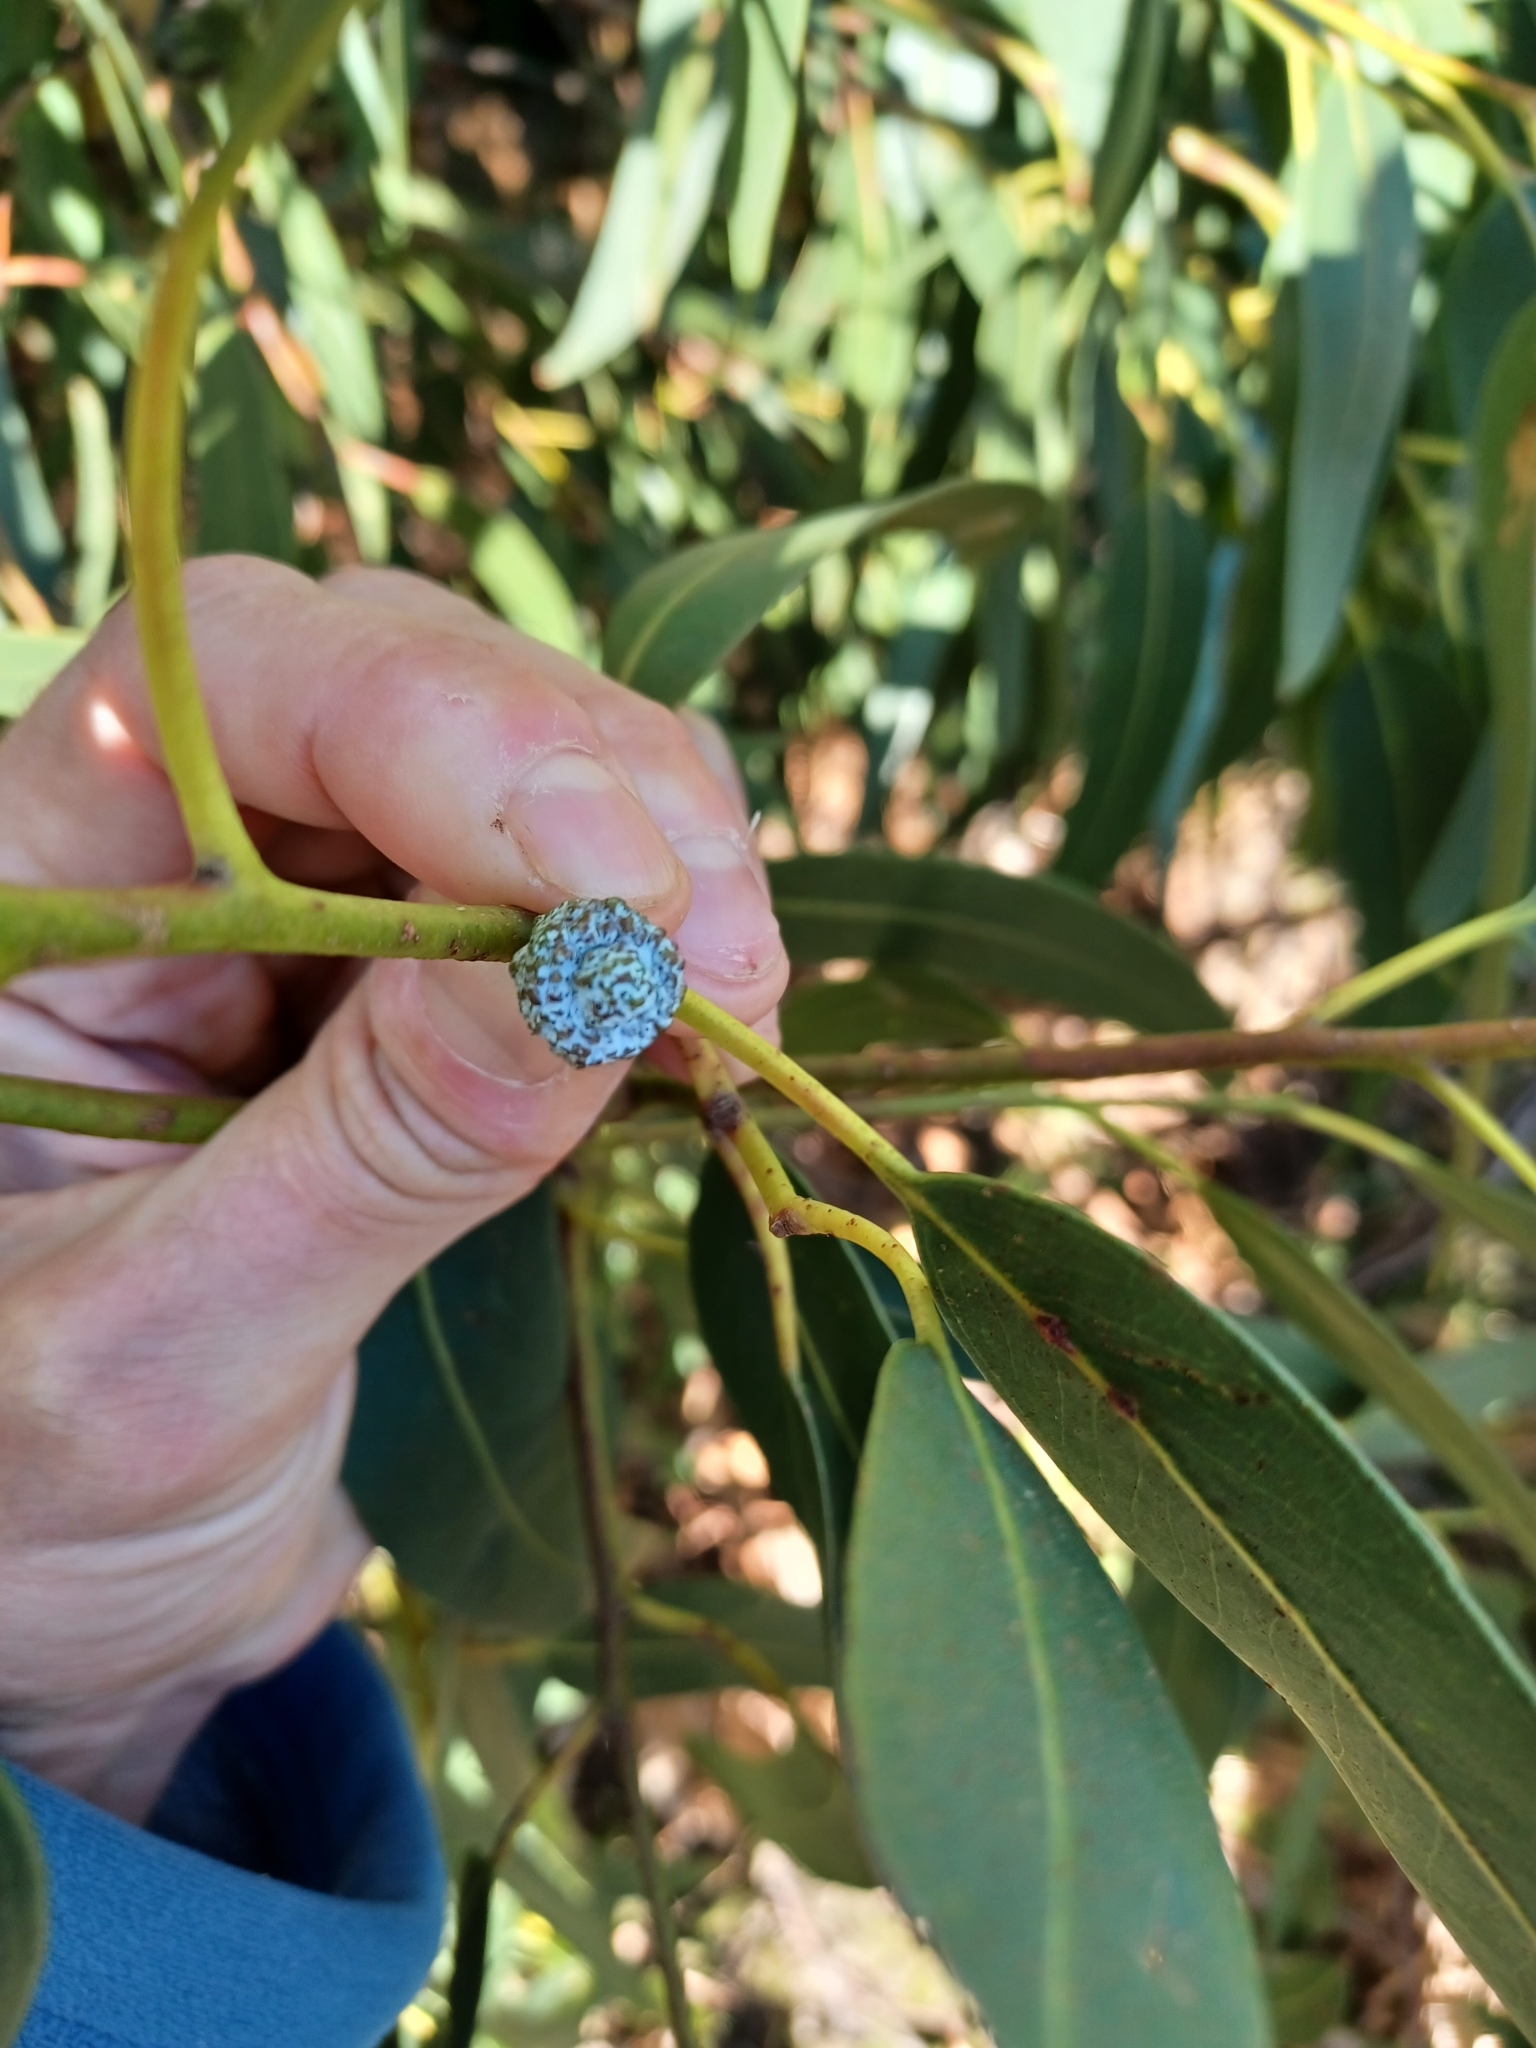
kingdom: Plantae
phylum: Tracheophyta
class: Magnoliopsida
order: Myrtales
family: Myrtaceae
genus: Eucalyptus
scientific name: Eucalyptus globulus
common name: Southern blue-gum
